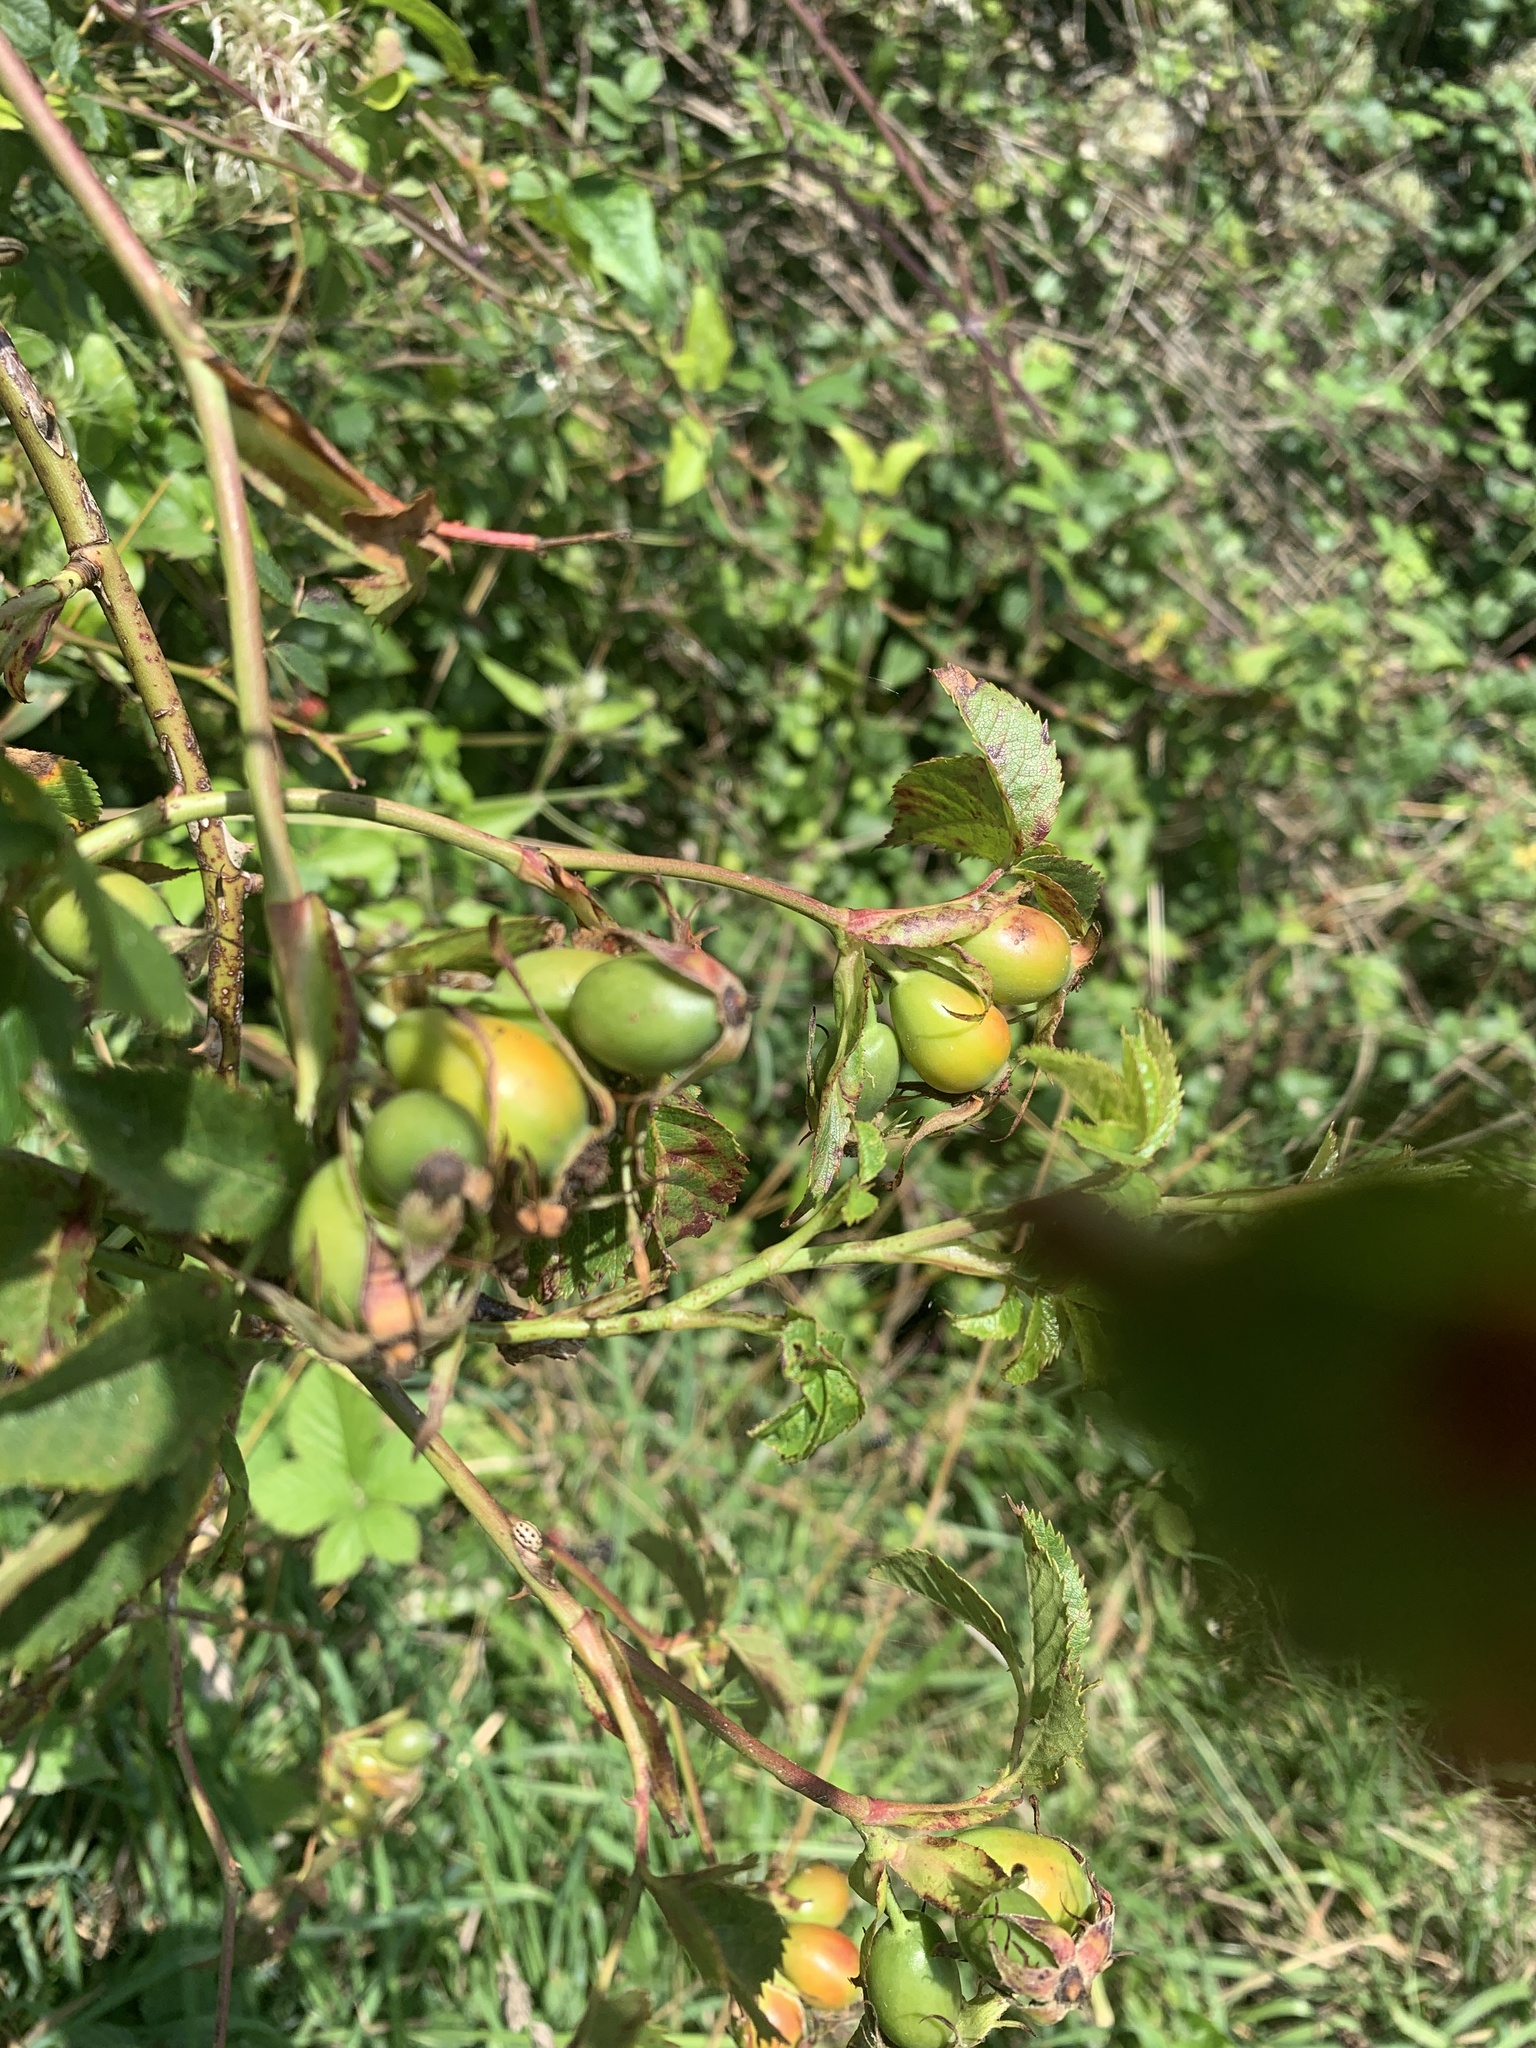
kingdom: Plantae
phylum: Tracheophyta
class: Magnoliopsida
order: Rosales
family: Rosaceae
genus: Rosa
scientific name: Rosa canina
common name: Dog rose
